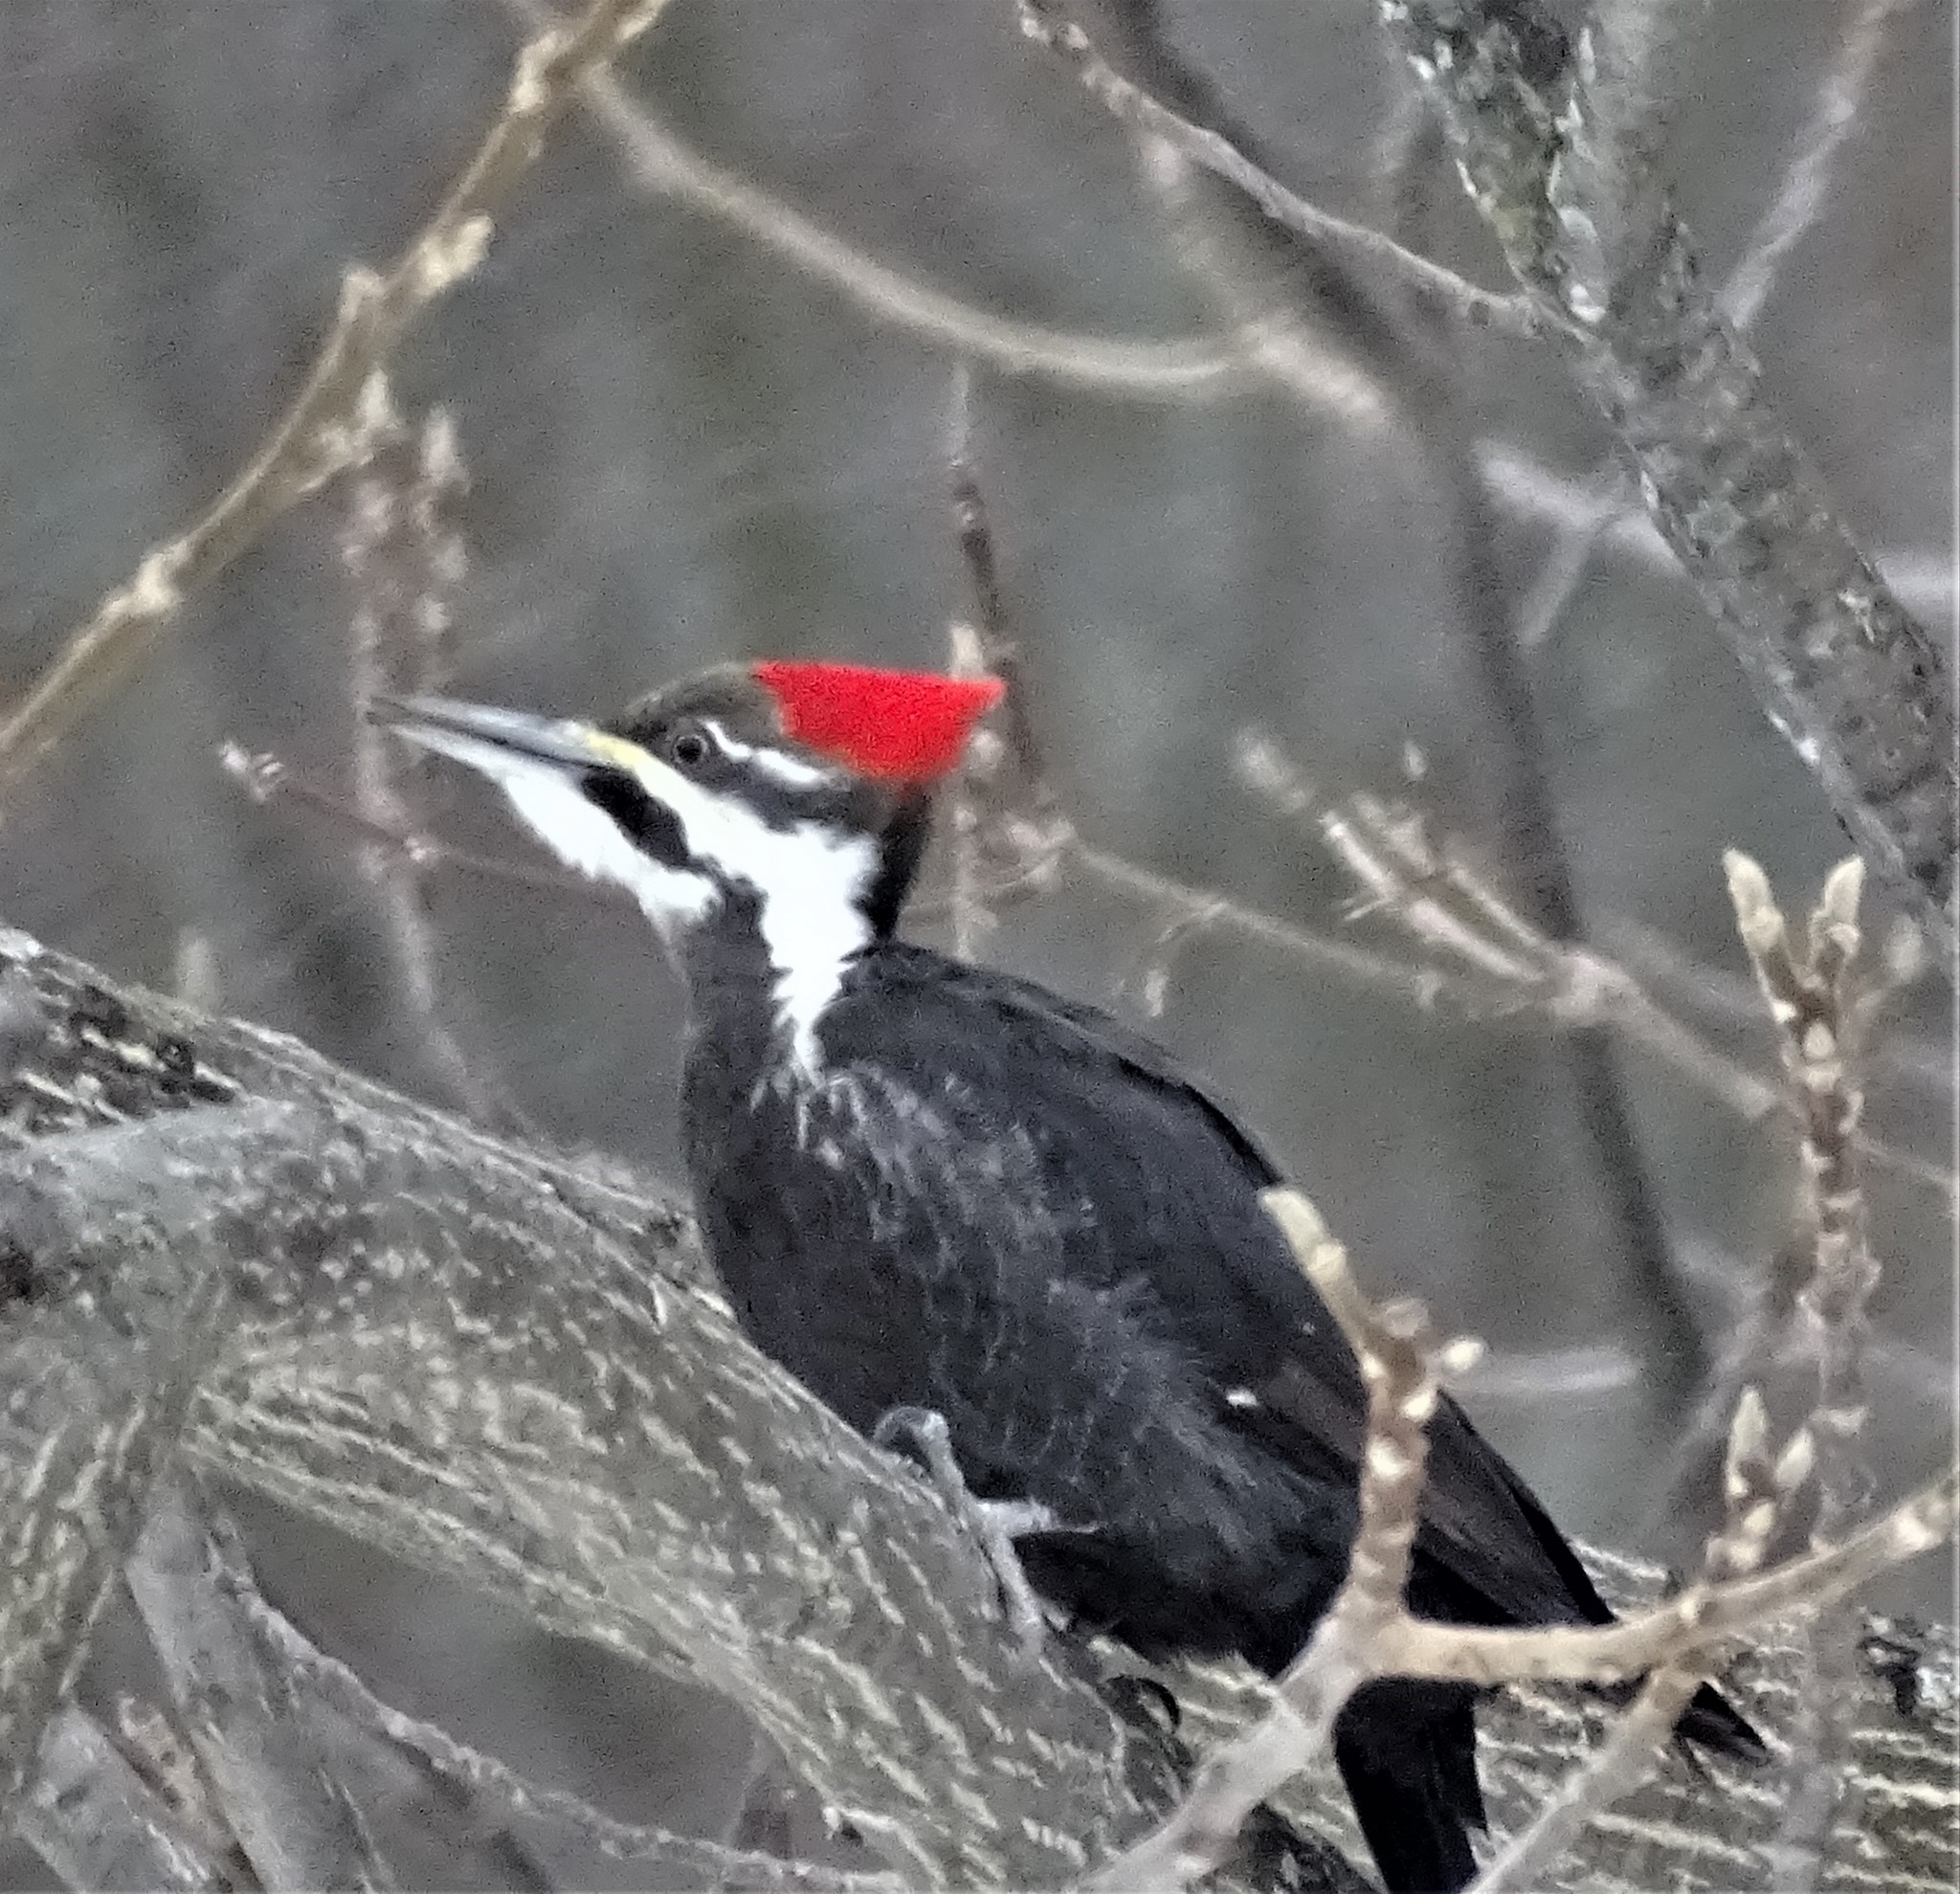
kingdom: Animalia
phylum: Chordata
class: Aves
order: Piciformes
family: Picidae
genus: Dryocopus
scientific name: Dryocopus pileatus
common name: Pileated woodpecker
